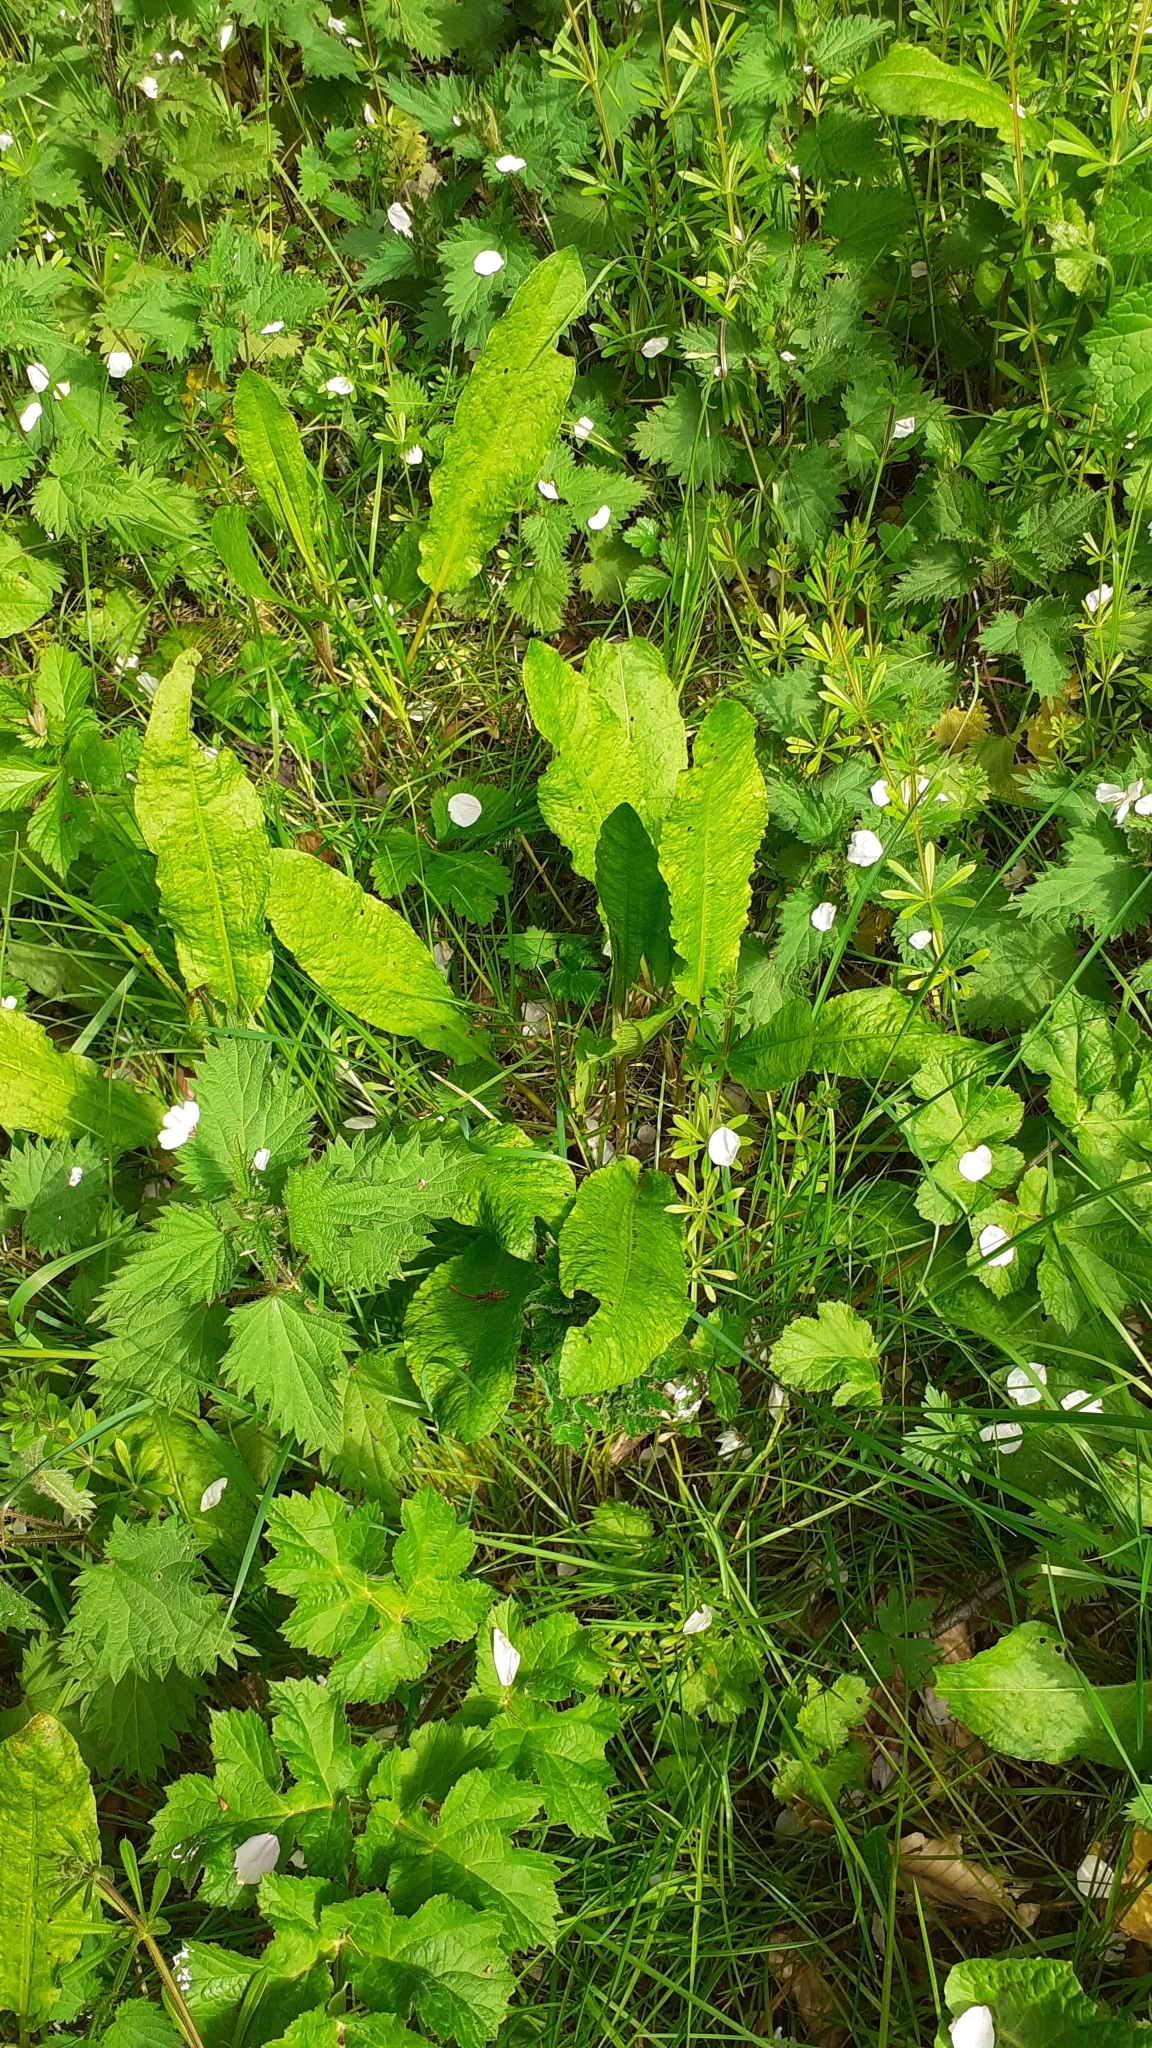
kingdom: Plantae
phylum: Tracheophyta
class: Magnoliopsida
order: Caryophyllales
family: Polygonaceae
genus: Rumex
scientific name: Rumex sanguineus
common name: Wood dock
